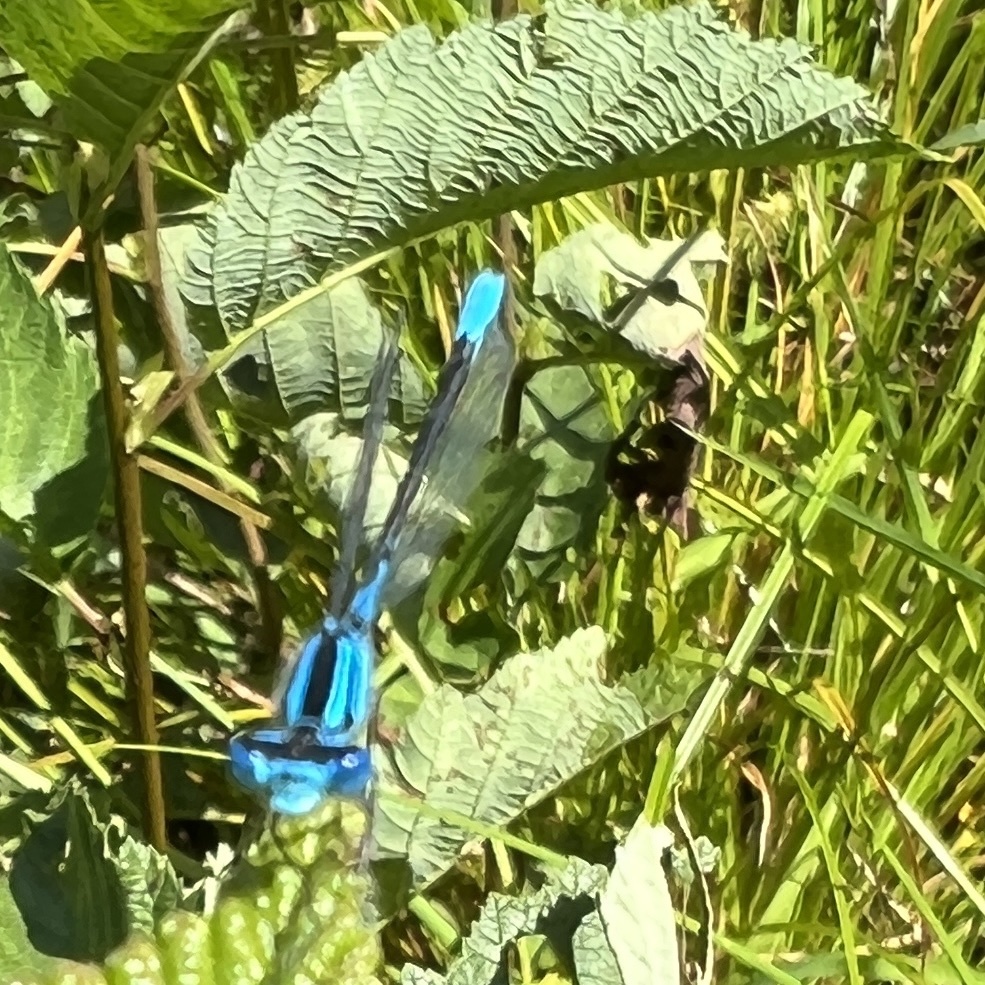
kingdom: Animalia
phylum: Arthropoda
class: Insecta
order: Odonata
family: Coenagrionidae
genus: Enallagma
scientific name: Enallagma aspersum
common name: Azure bluet
